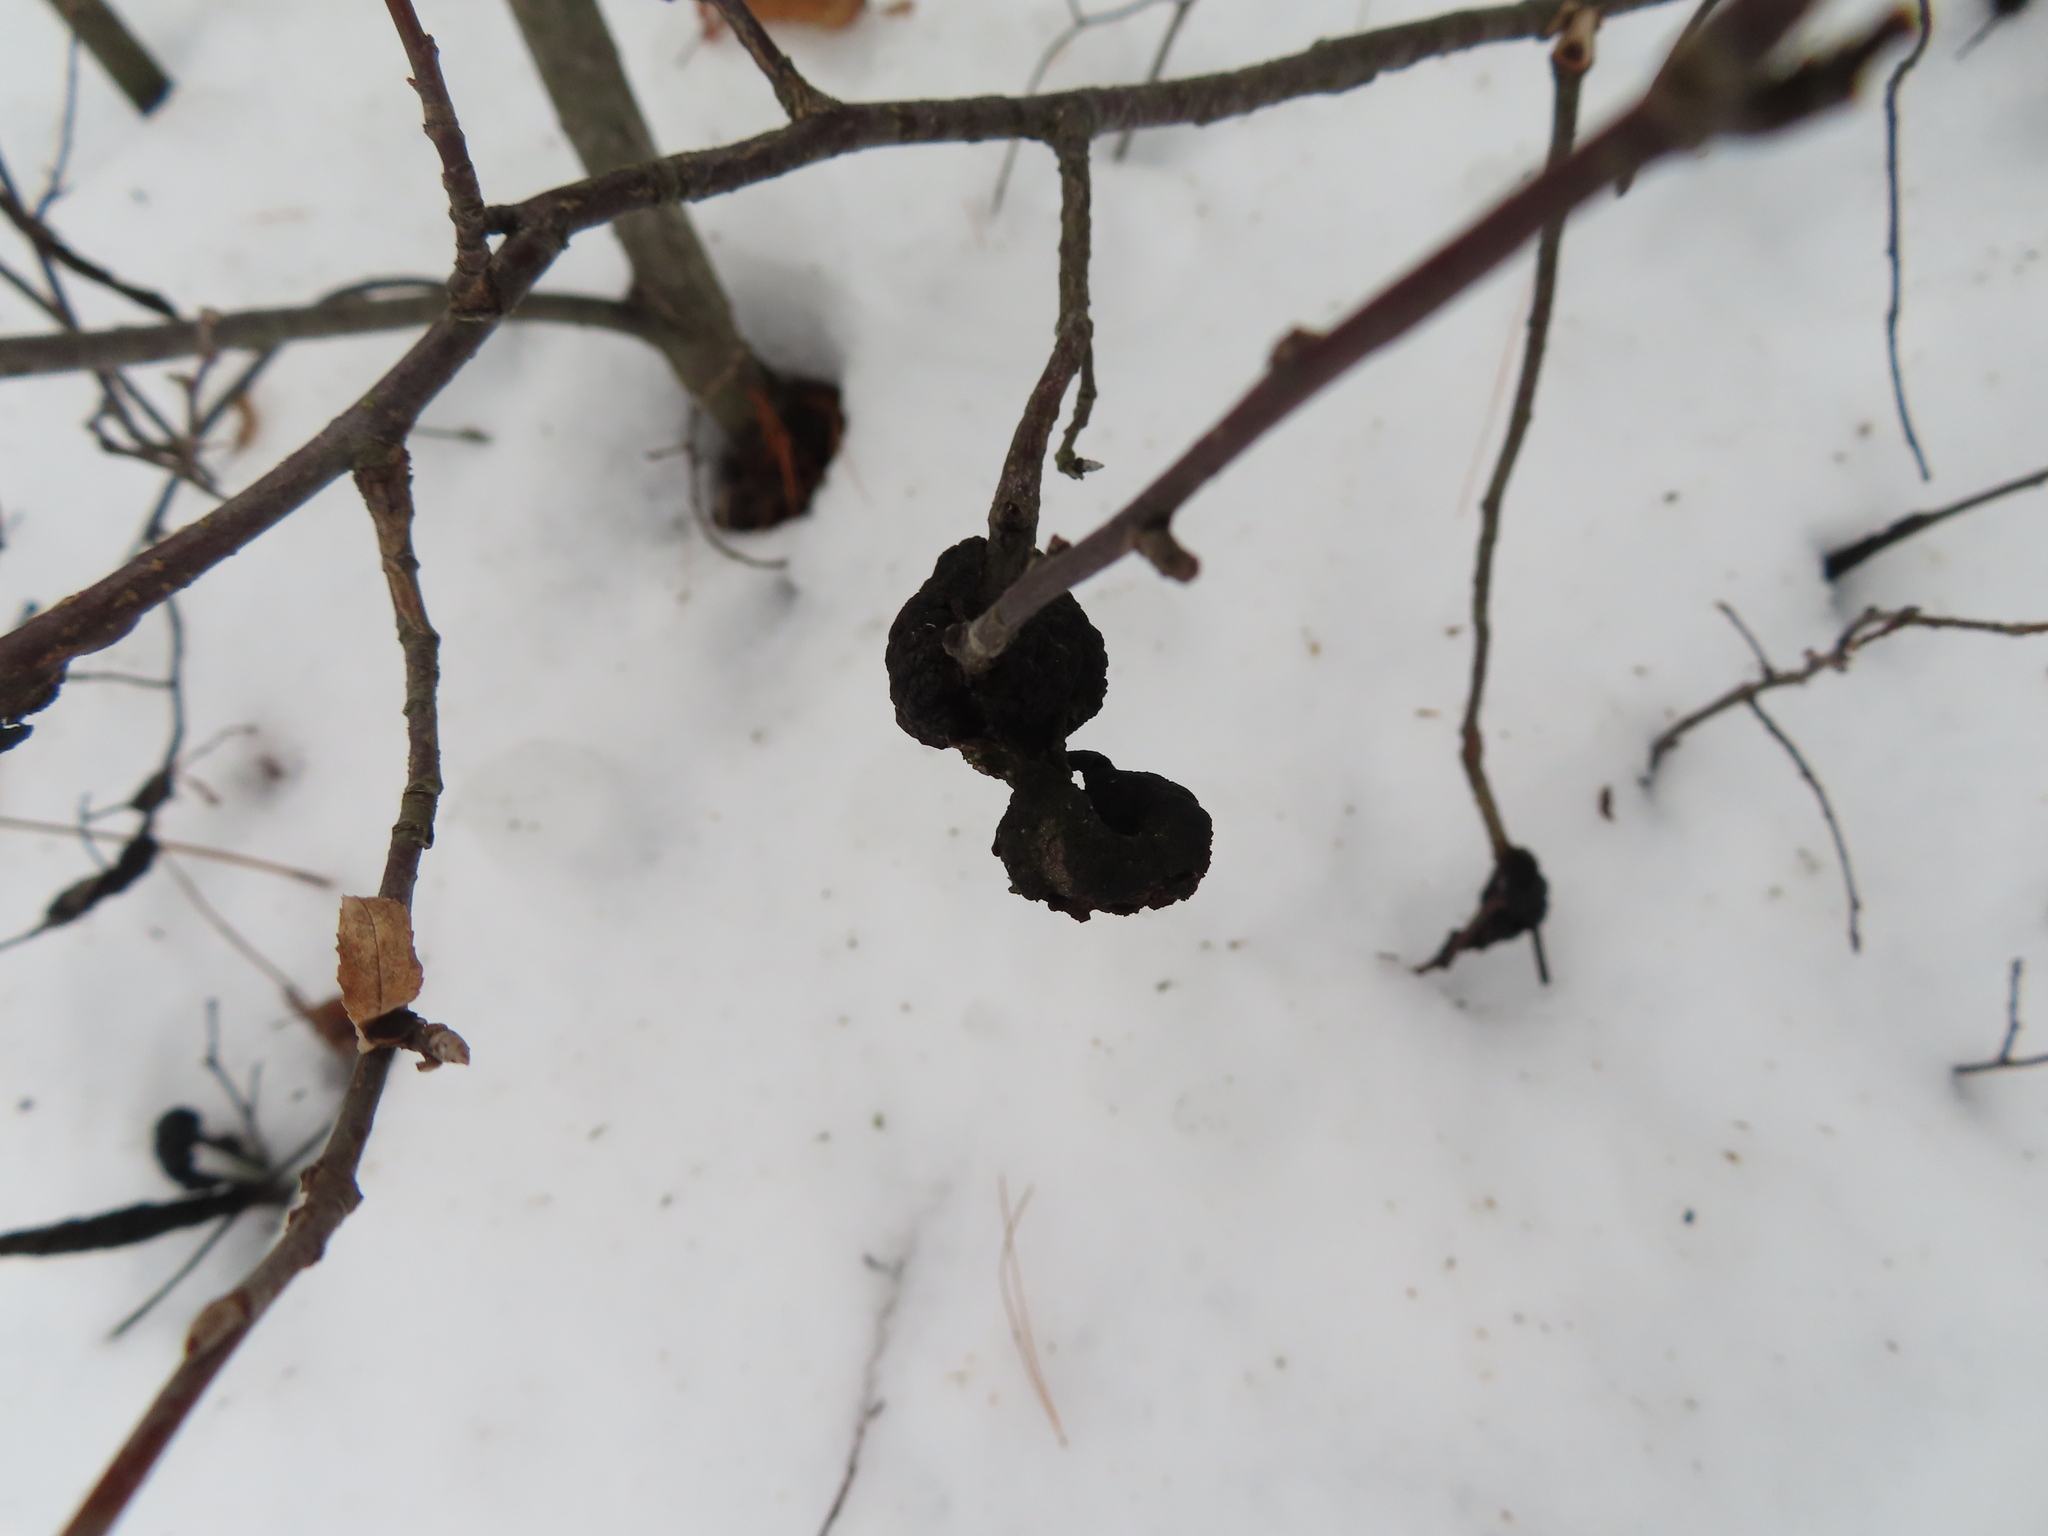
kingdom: Fungi
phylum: Ascomycota
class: Dothideomycetes
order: Venturiales
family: Venturiaceae
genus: Apiosporina
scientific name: Apiosporina morbosa
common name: Black knot
